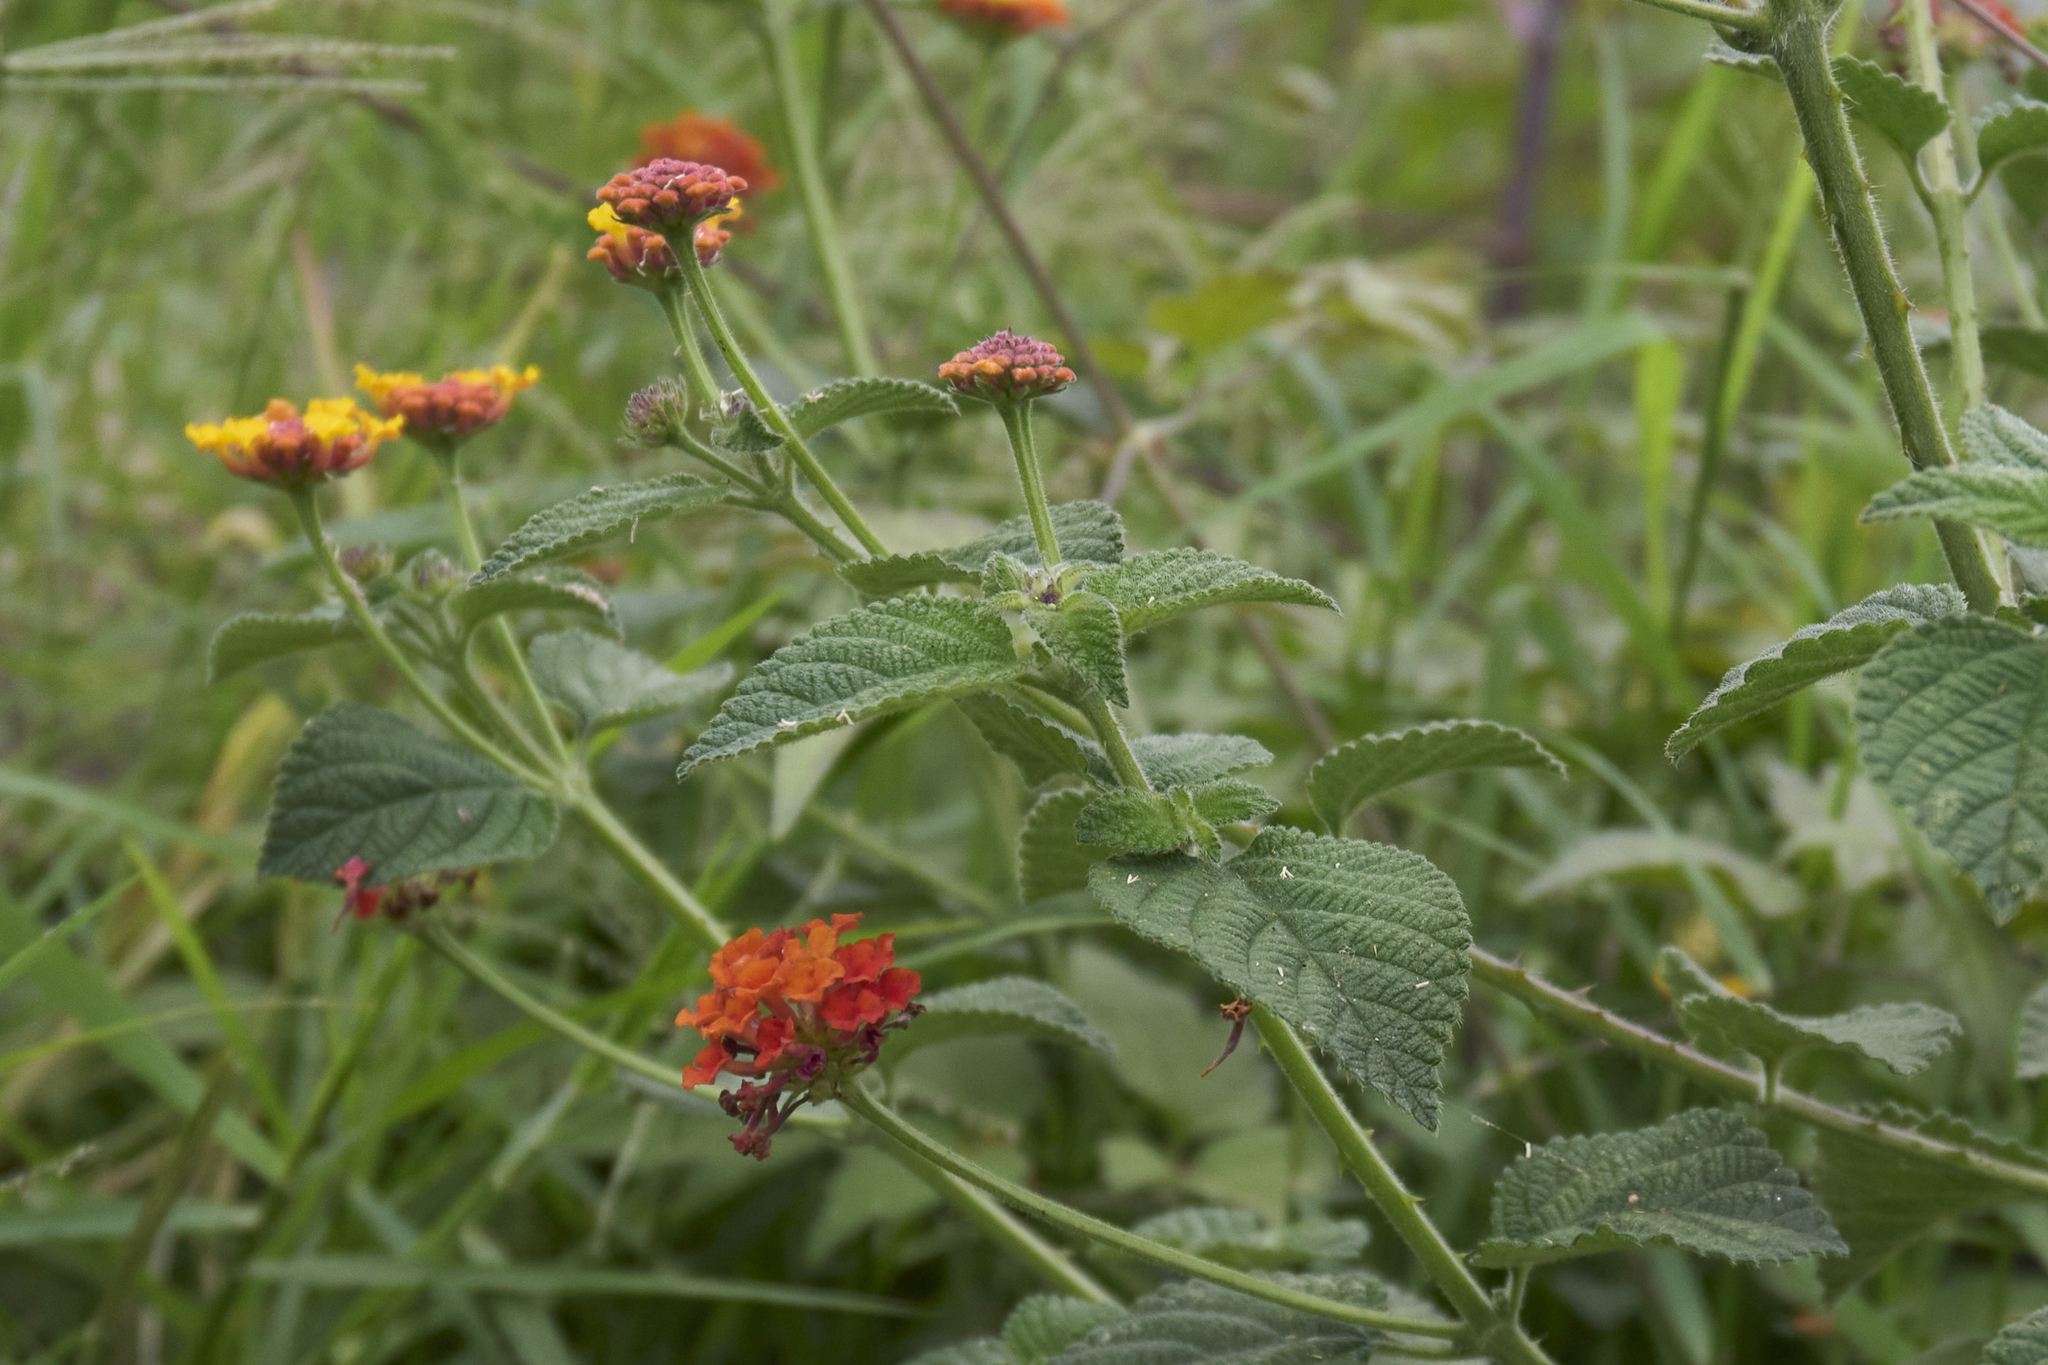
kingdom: Plantae
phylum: Tracheophyta
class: Magnoliopsida
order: Lamiales
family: Verbenaceae
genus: Lantana
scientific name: Lantana horrida
